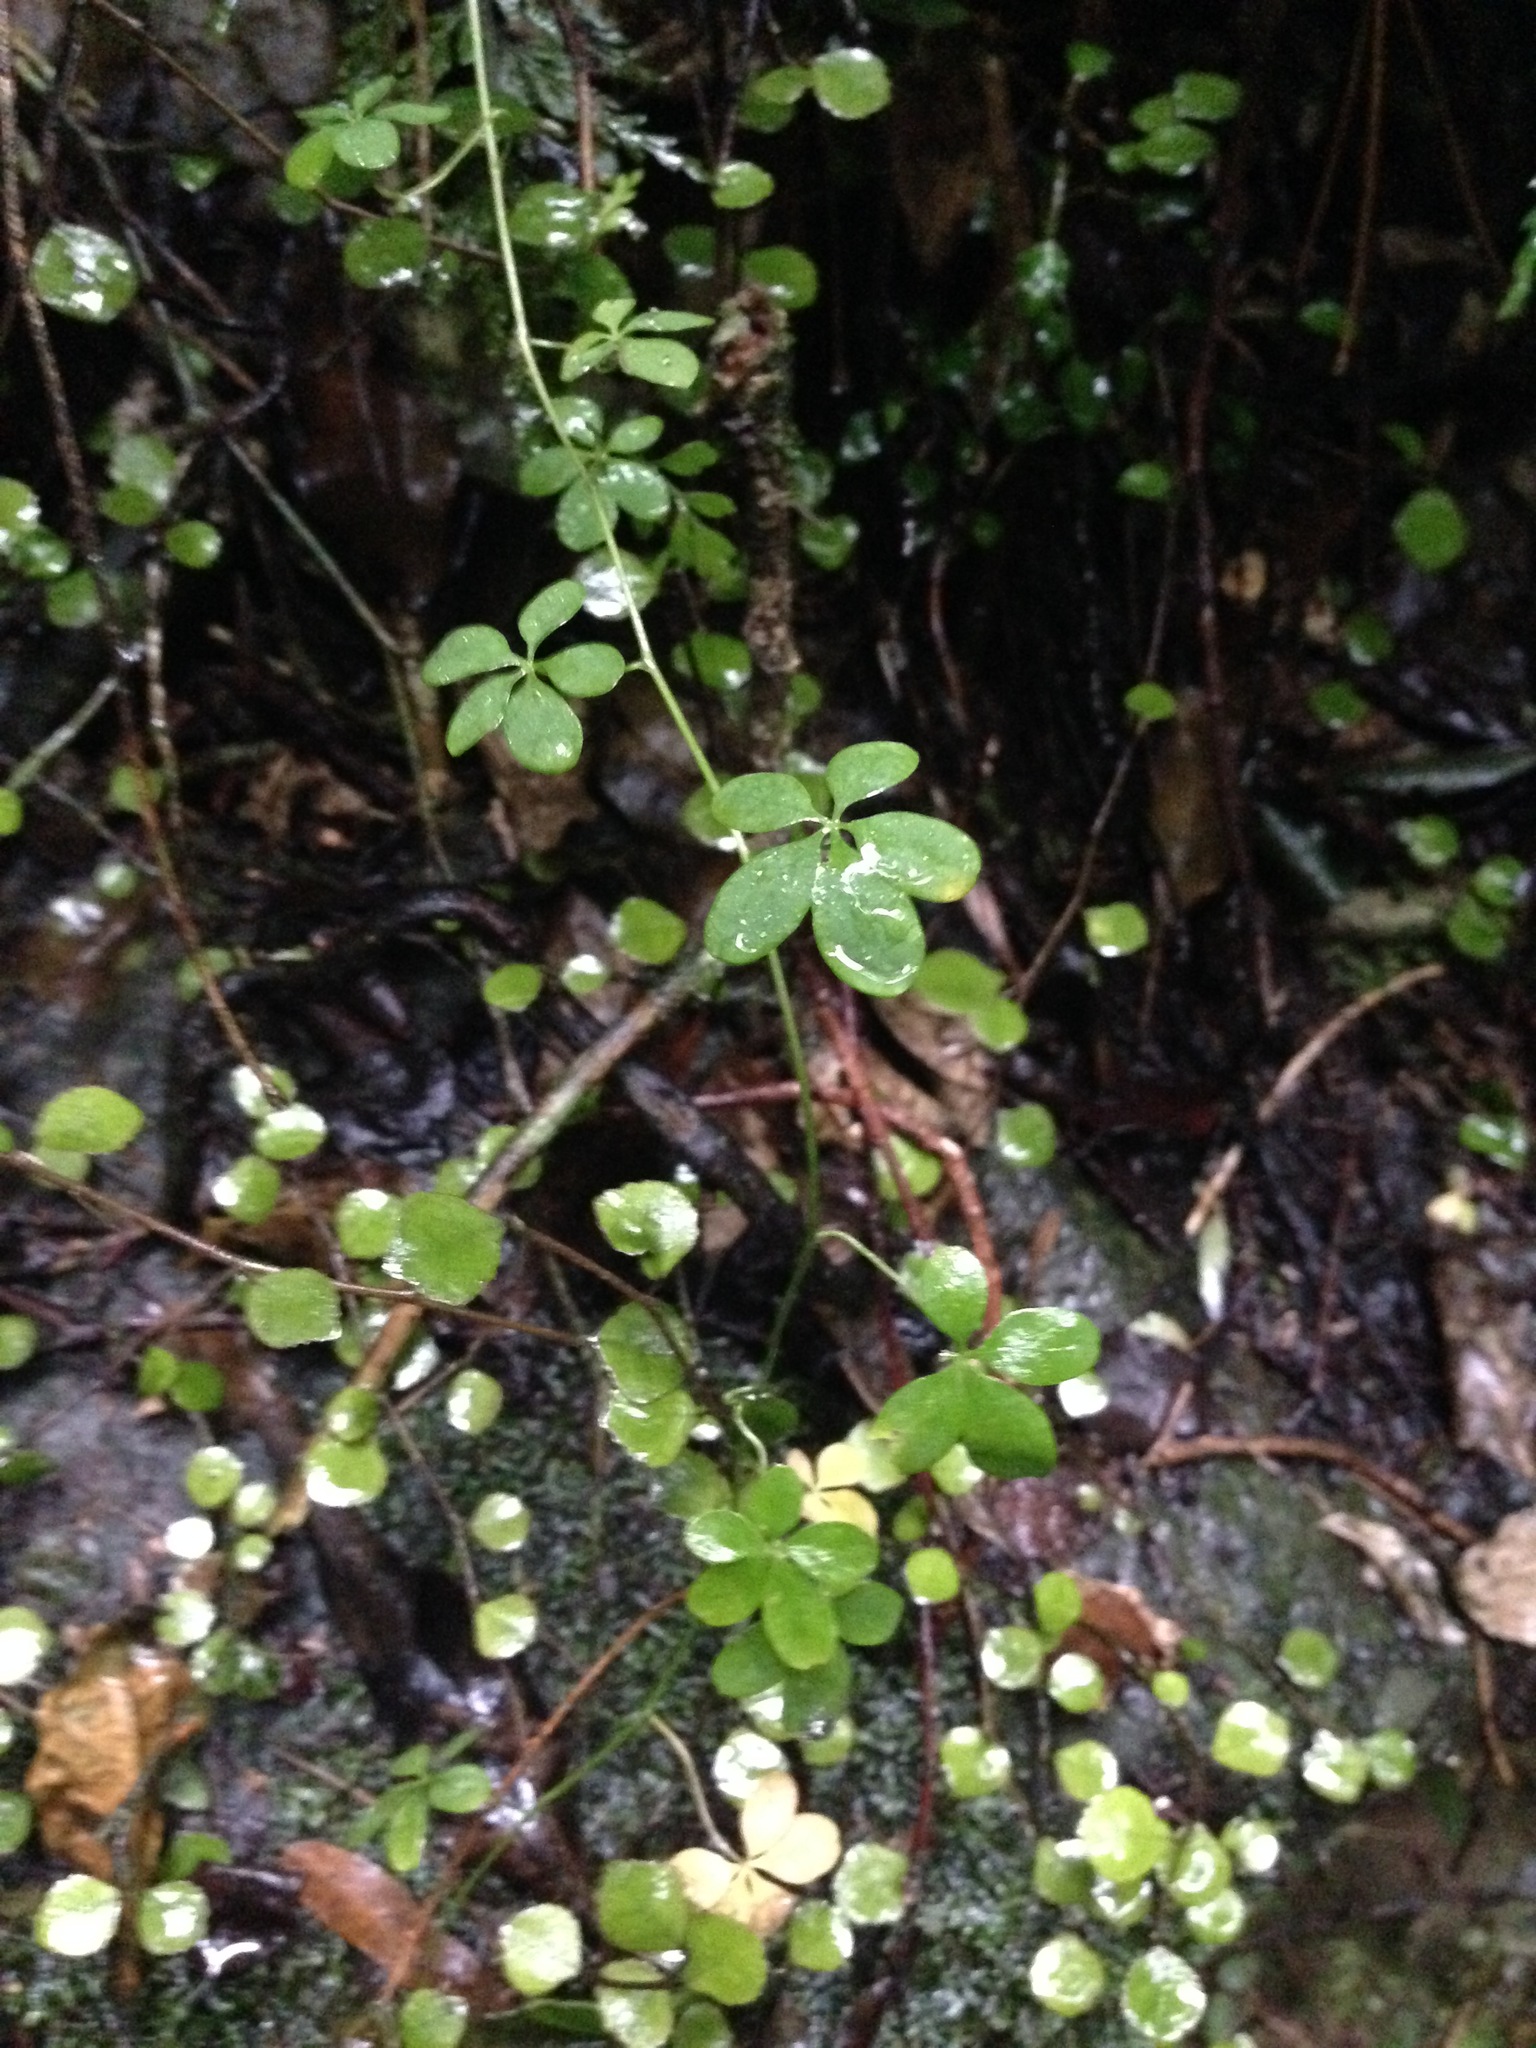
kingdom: Plantae
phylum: Tracheophyta
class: Magnoliopsida
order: Brassicales
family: Tropaeolaceae
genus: Tropaeolum
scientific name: Tropaeolum speciosum
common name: Flame nasturtium
